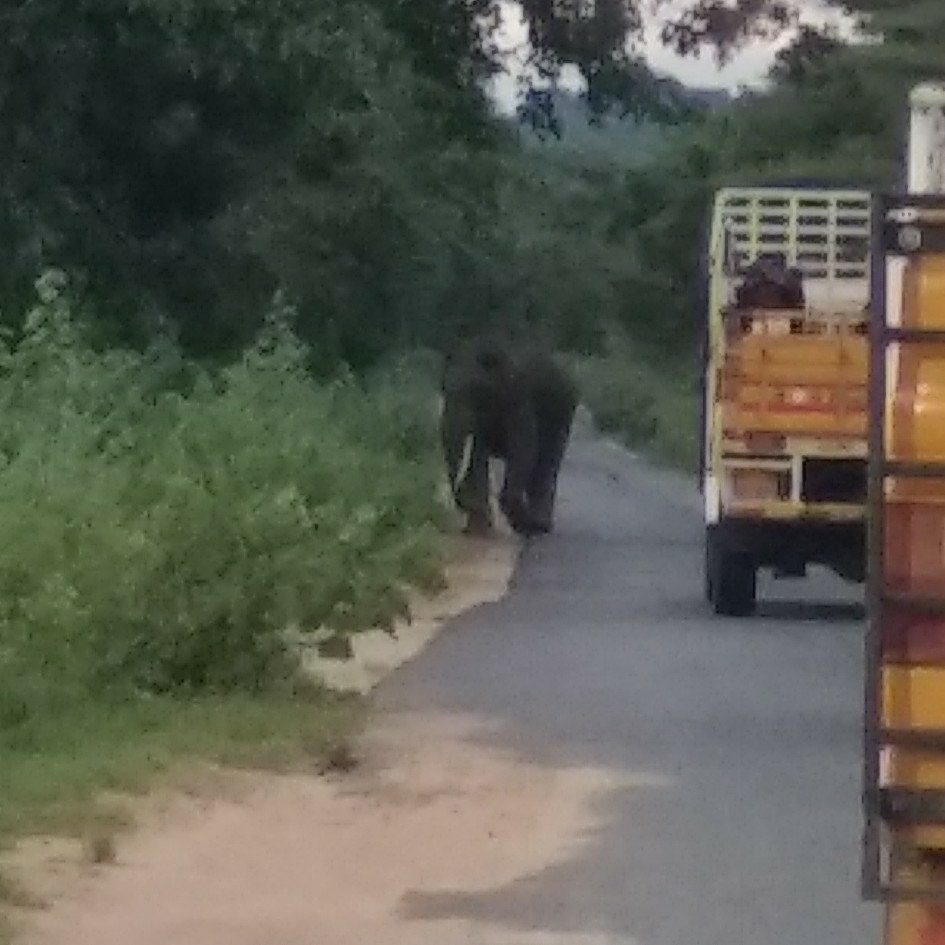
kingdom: Animalia
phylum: Chordata
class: Mammalia
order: Proboscidea
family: Elephantidae
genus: Elephas
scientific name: Elephas maximus
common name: Asian elephant
